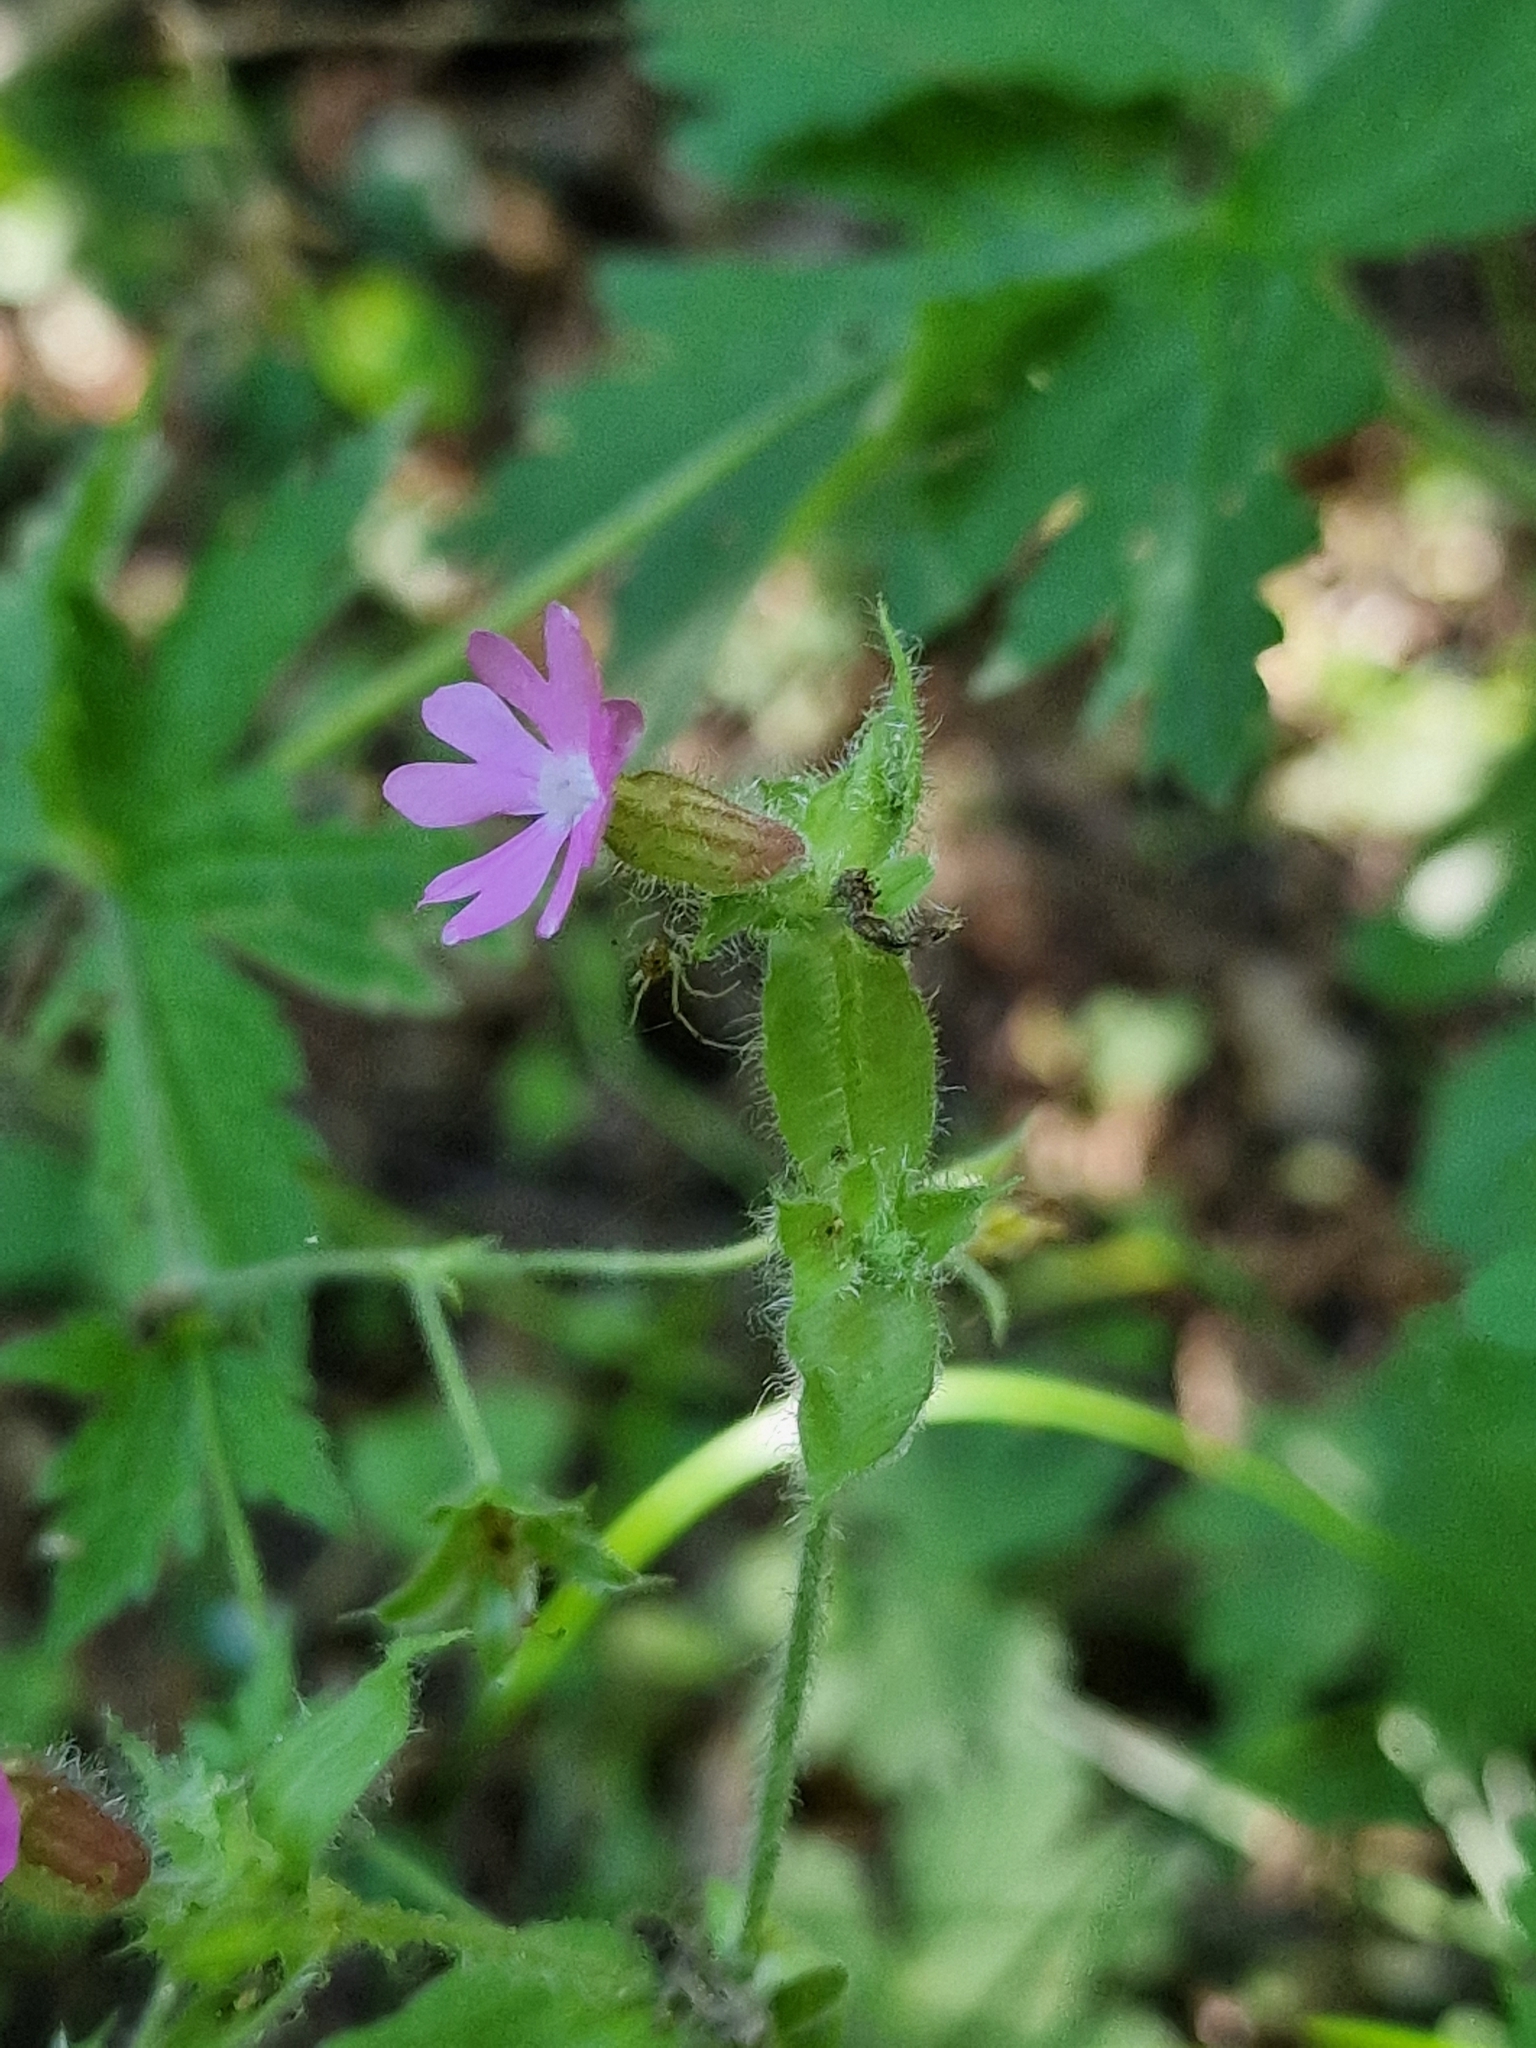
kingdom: Plantae
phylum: Tracheophyta
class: Magnoliopsida
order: Caryophyllales
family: Caryophyllaceae
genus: Silene
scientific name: Silene dioica
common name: Red campion
